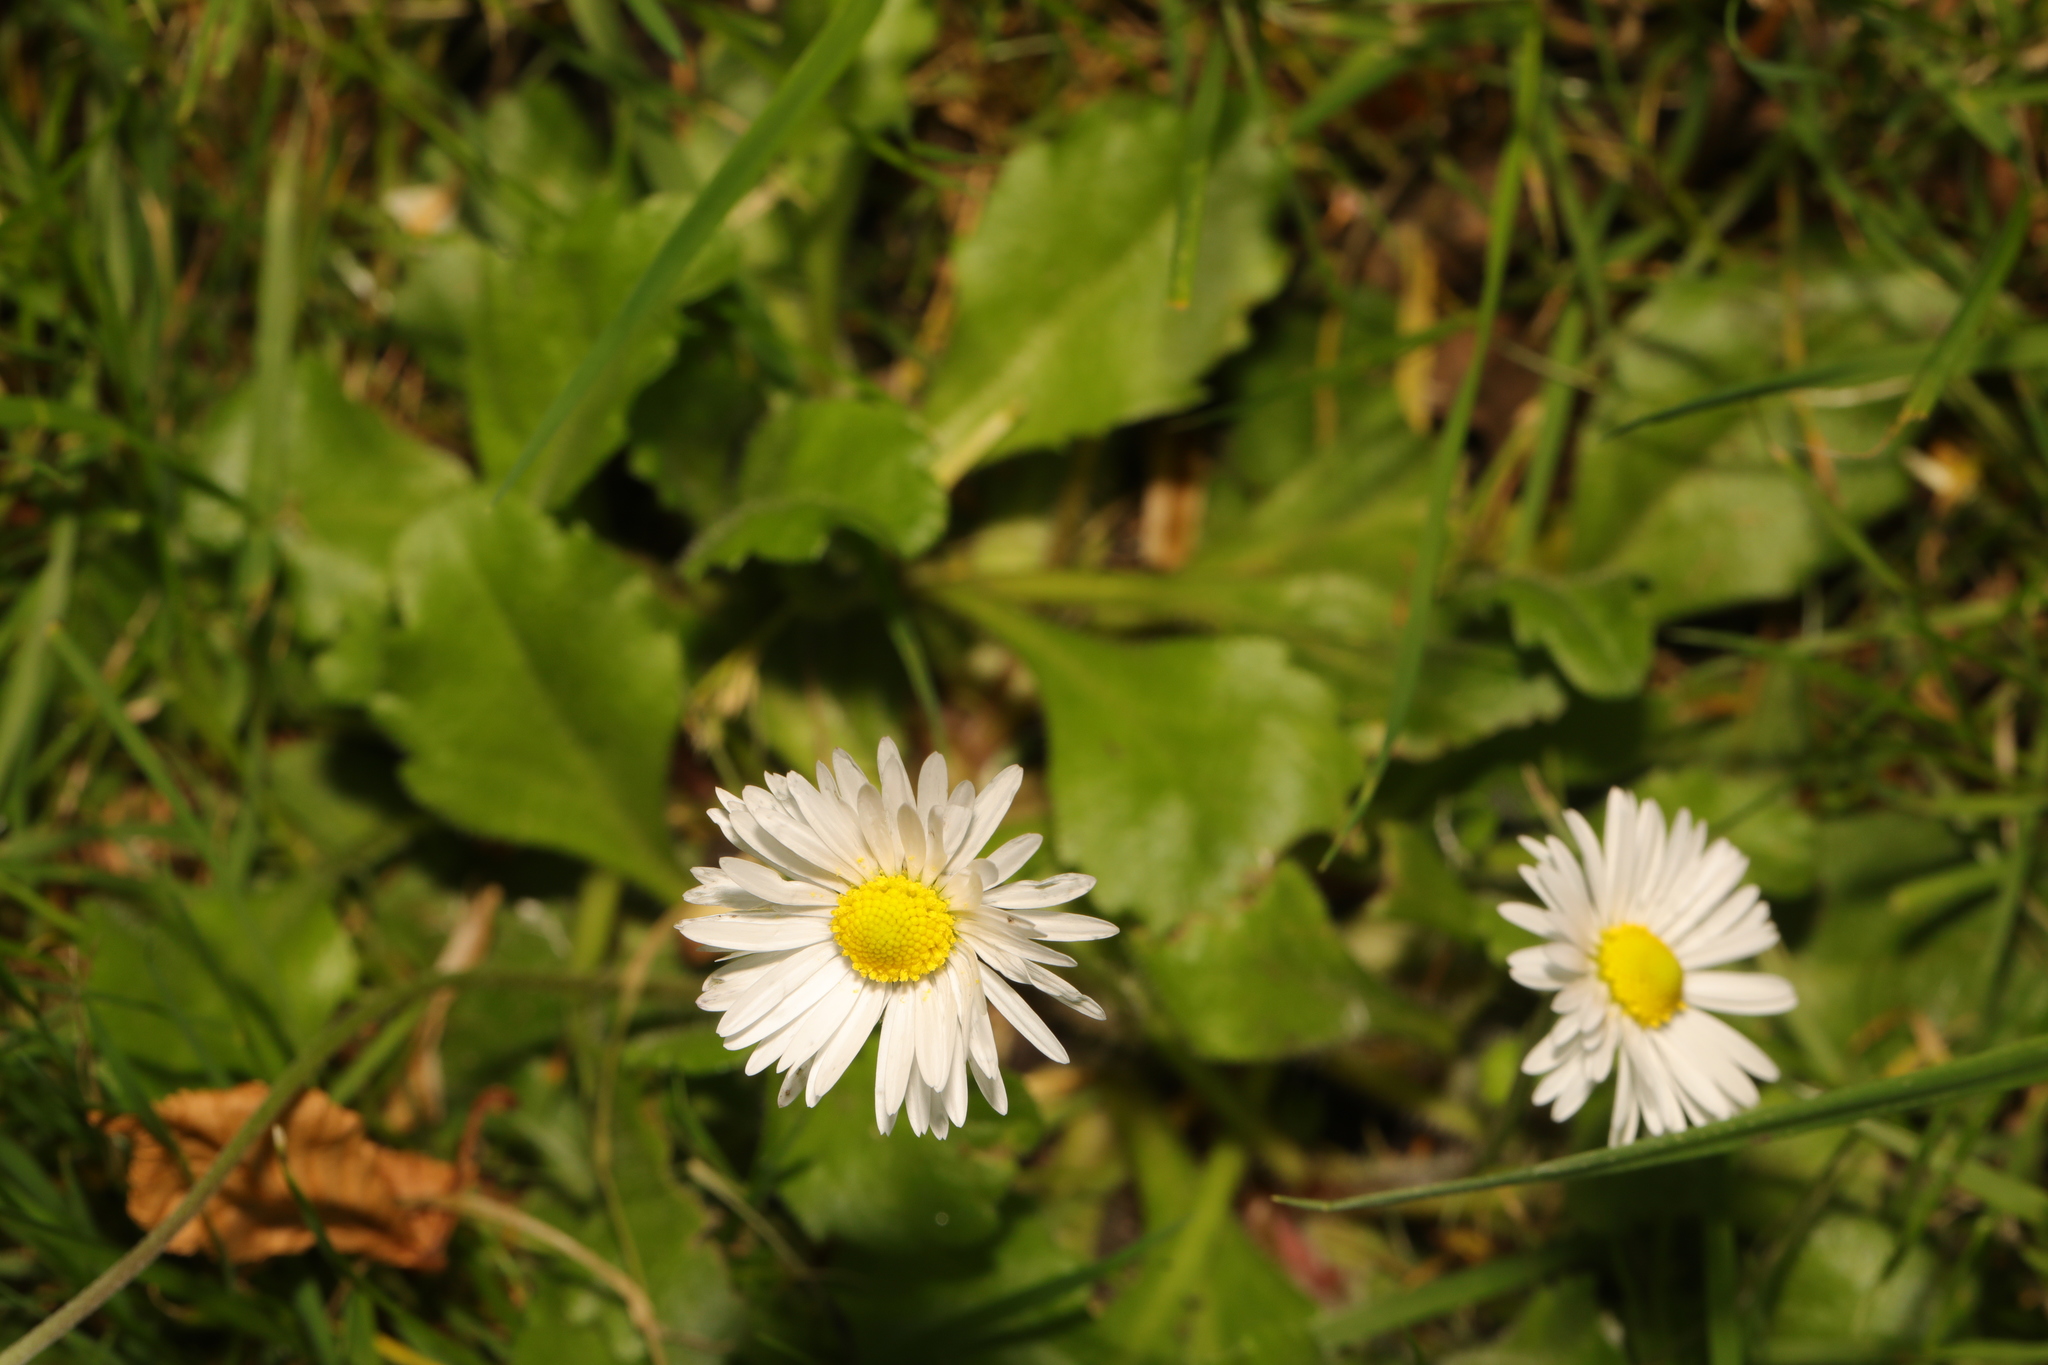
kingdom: Plantae
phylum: Tracheophyta
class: Magnoliopsida
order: Asterales
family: Asteraceae
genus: Bellis
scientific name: Bellis perennis
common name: Lawndaisy
